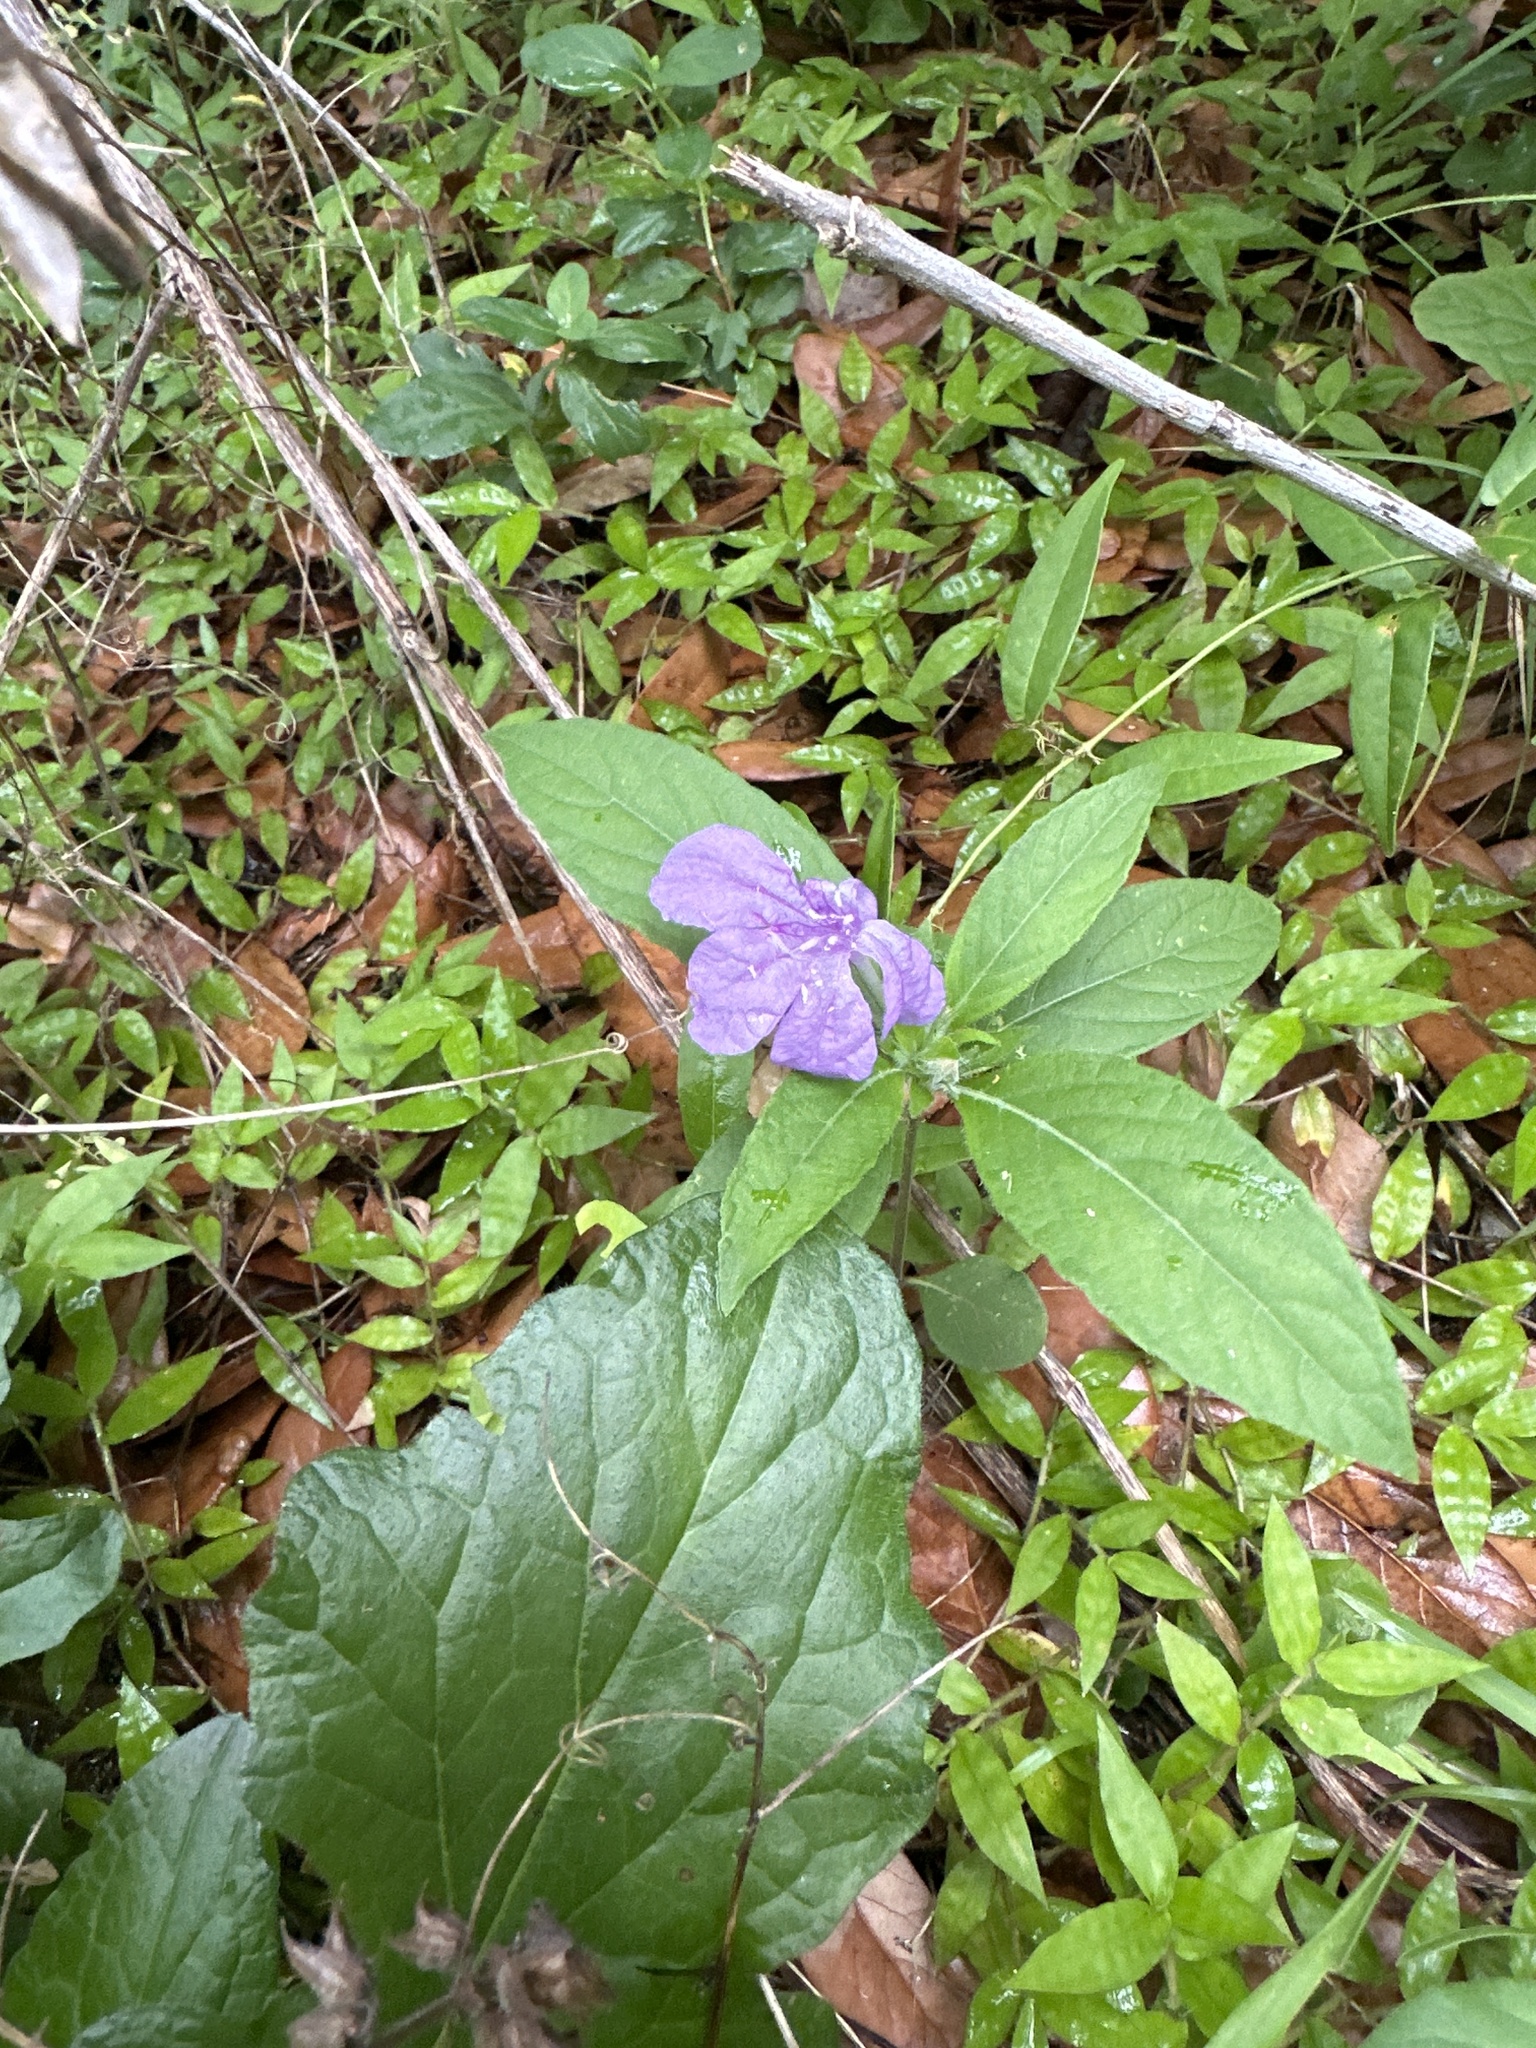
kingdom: Plantae
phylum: Tracheophyta
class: Magnoliopsida
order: Lamiales
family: Acanthaceae
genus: Ruellia
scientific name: Ruellia caroliniensis
